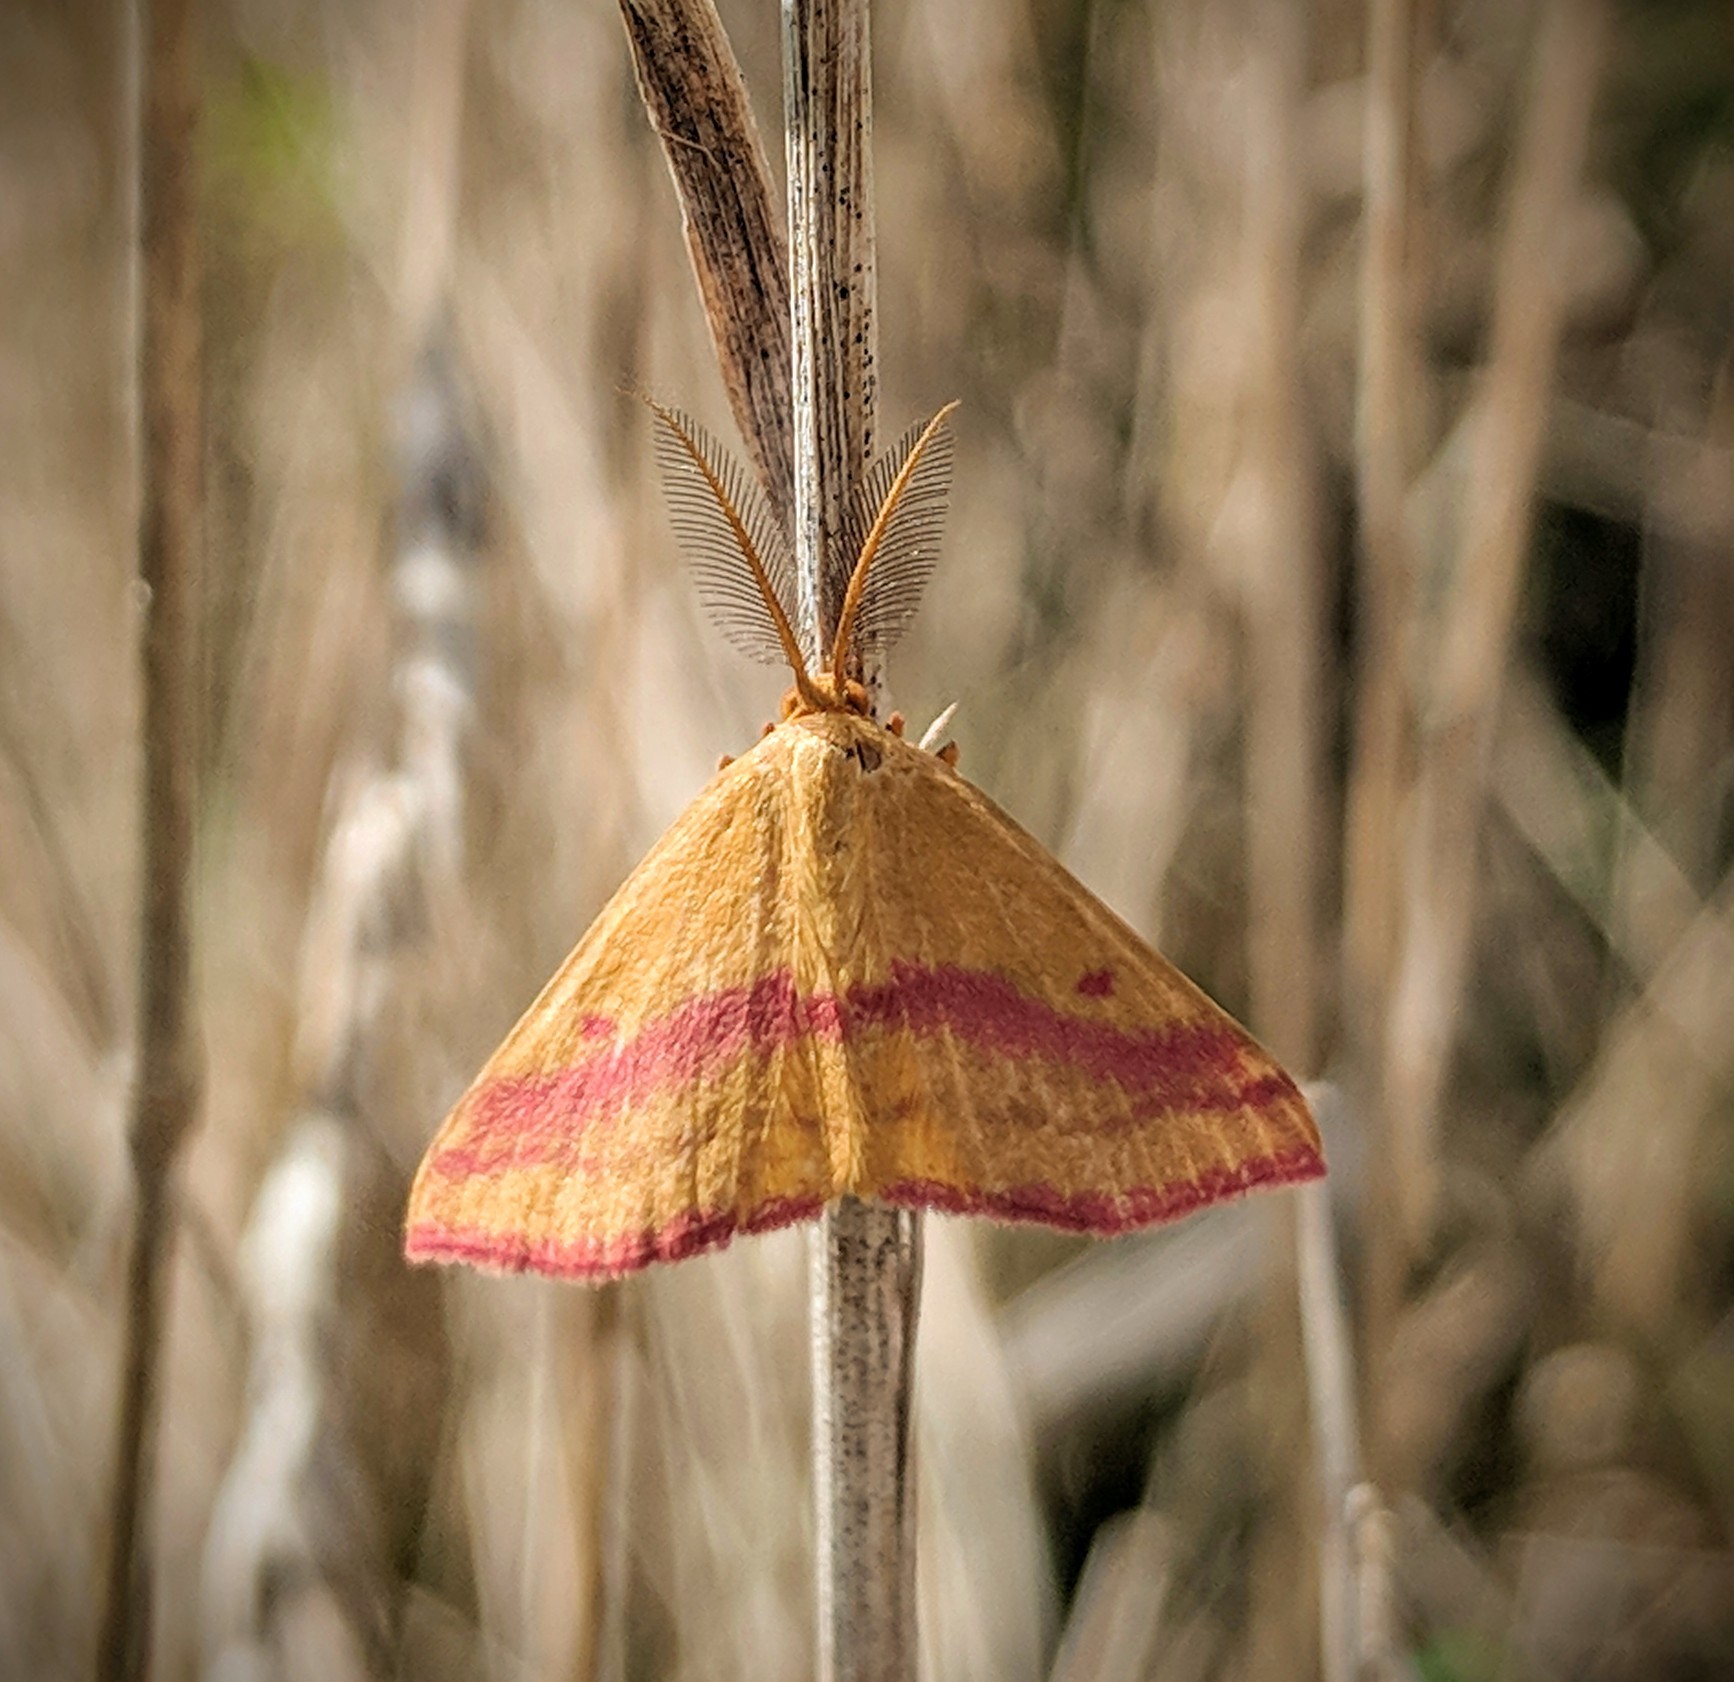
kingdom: Animalia
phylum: Arthropoda
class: Insecta
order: Lepidoptera
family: Geometridae
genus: Haematopis
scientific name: Haematopis grataria
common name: Chickweed geometer
